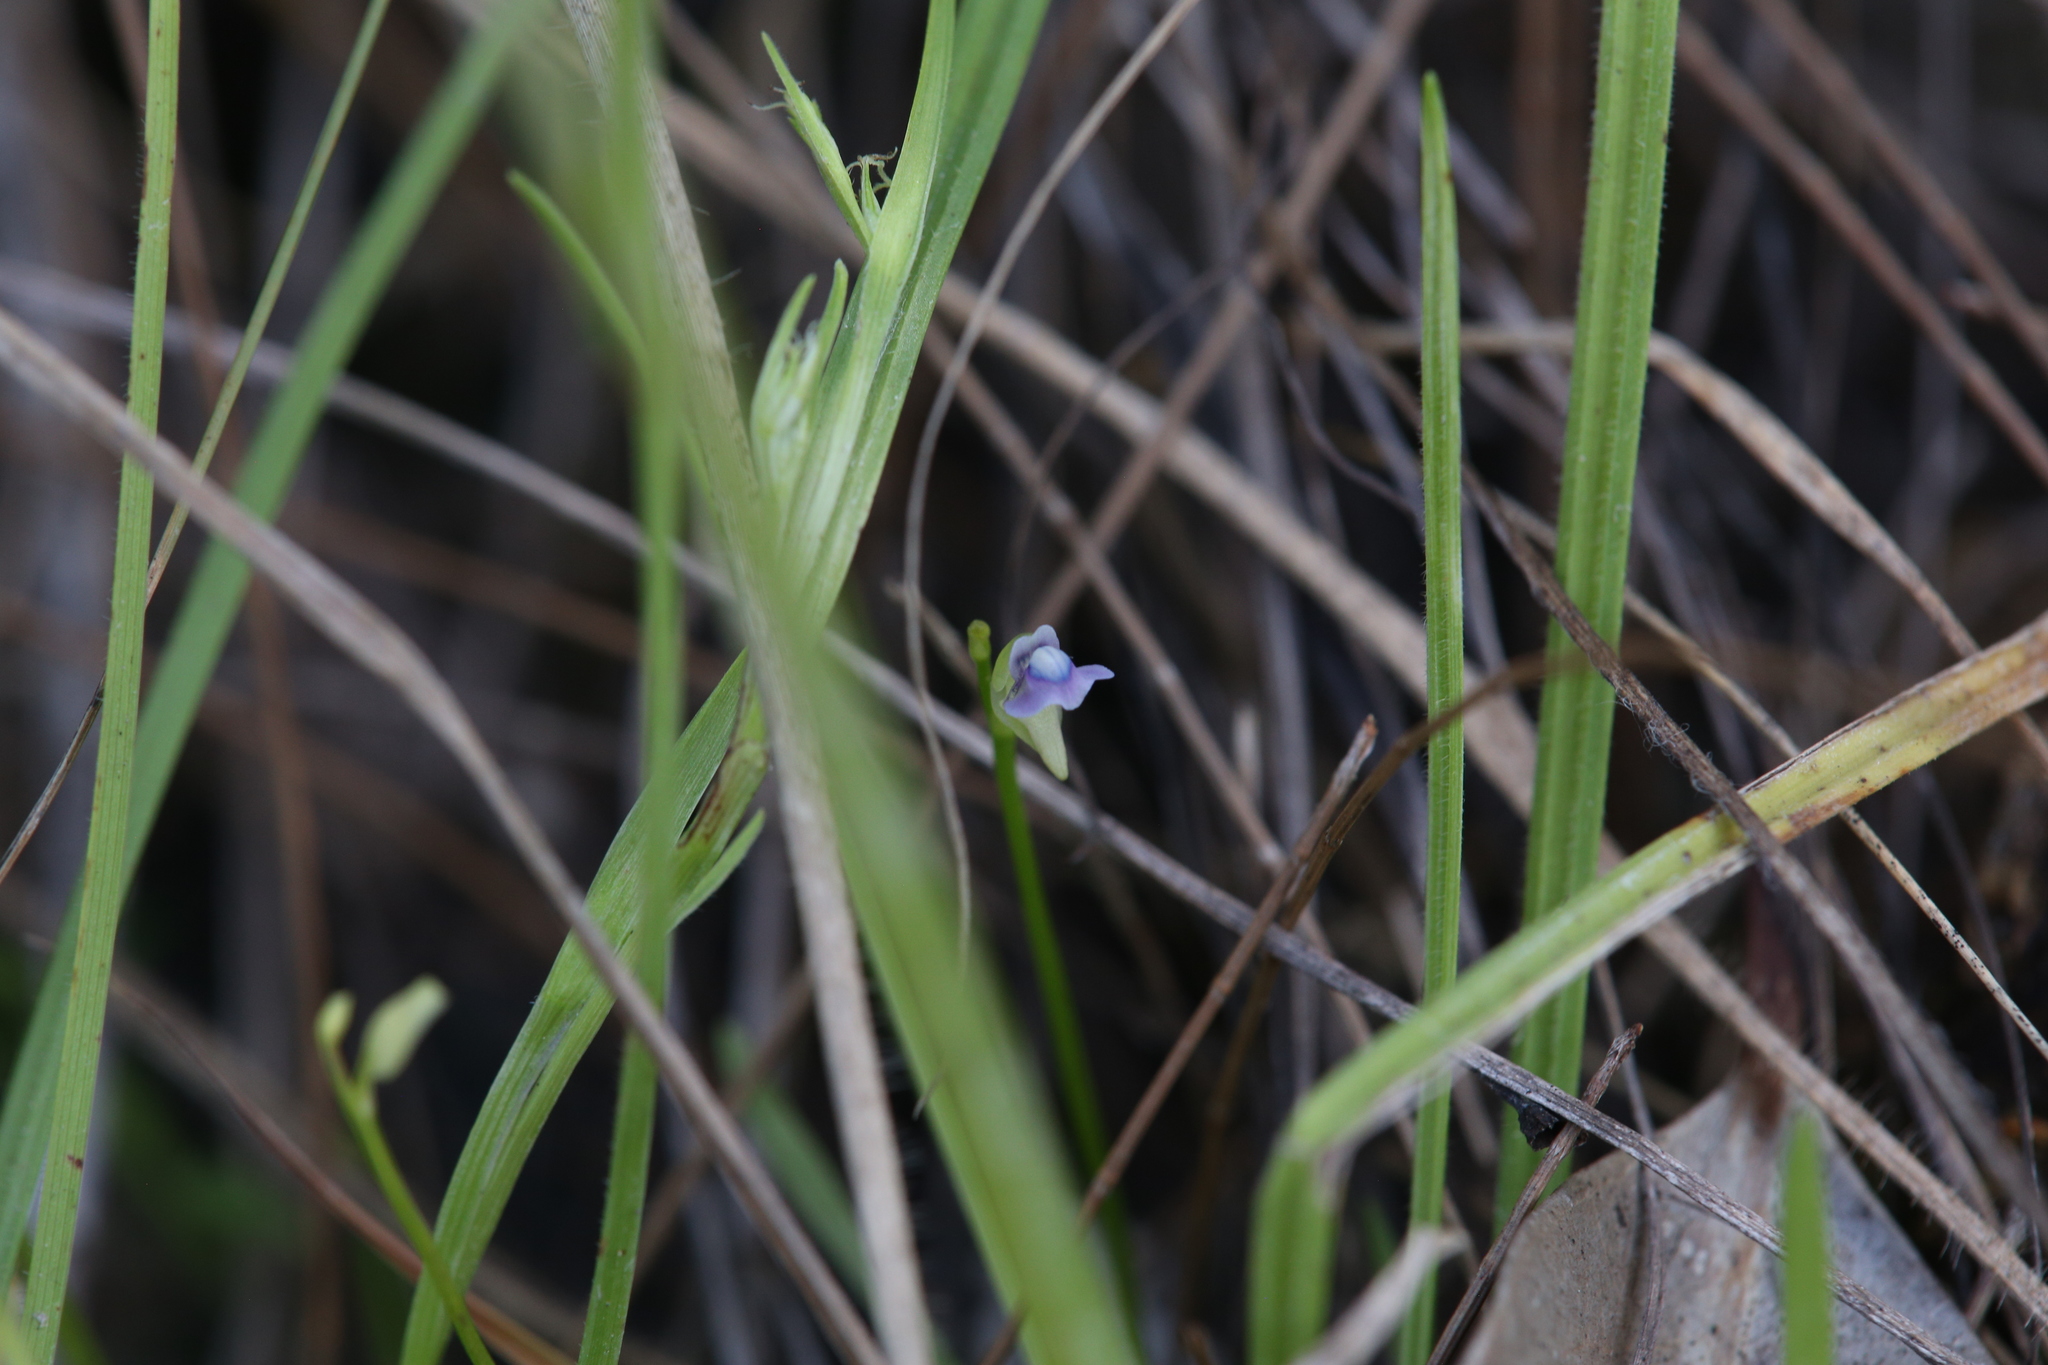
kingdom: Plantae
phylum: Tracheophyta
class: Magnoliopsida
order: Lamiales
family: Lentibulariaceae
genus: Utricularia
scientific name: Utricularia uliginosa
